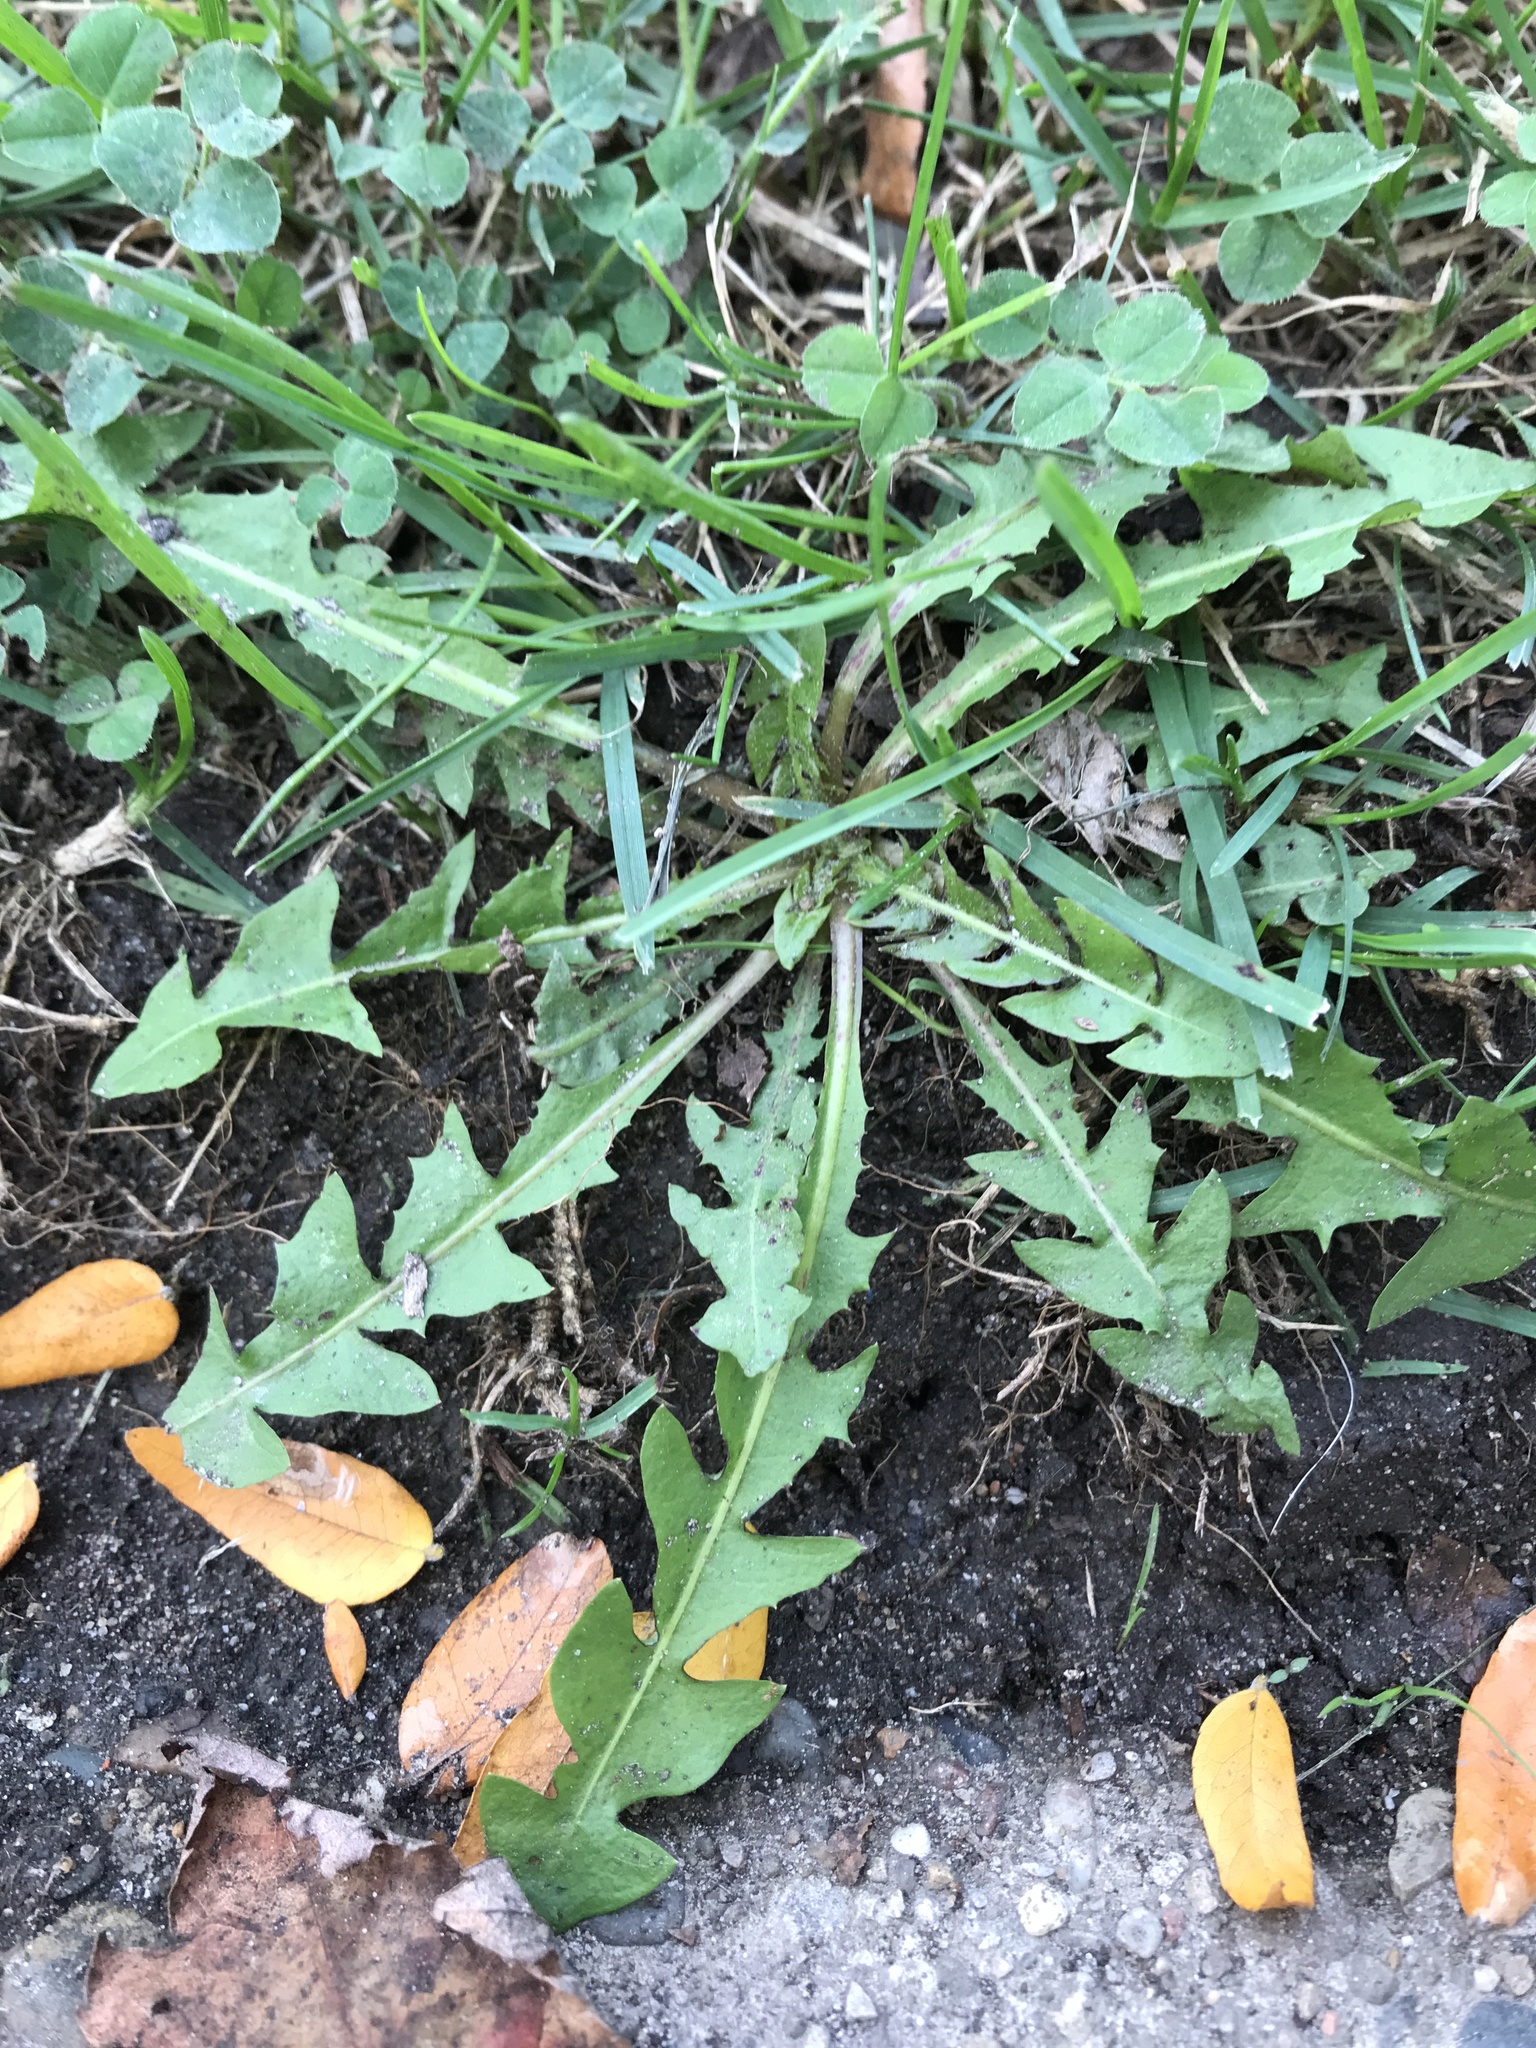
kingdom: Plantae
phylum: Tracheophyta
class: Magnoliopsida
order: Asterales
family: Asteraceae
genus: Taraxacum
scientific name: Taraxacum officinale
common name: Common dandelion
